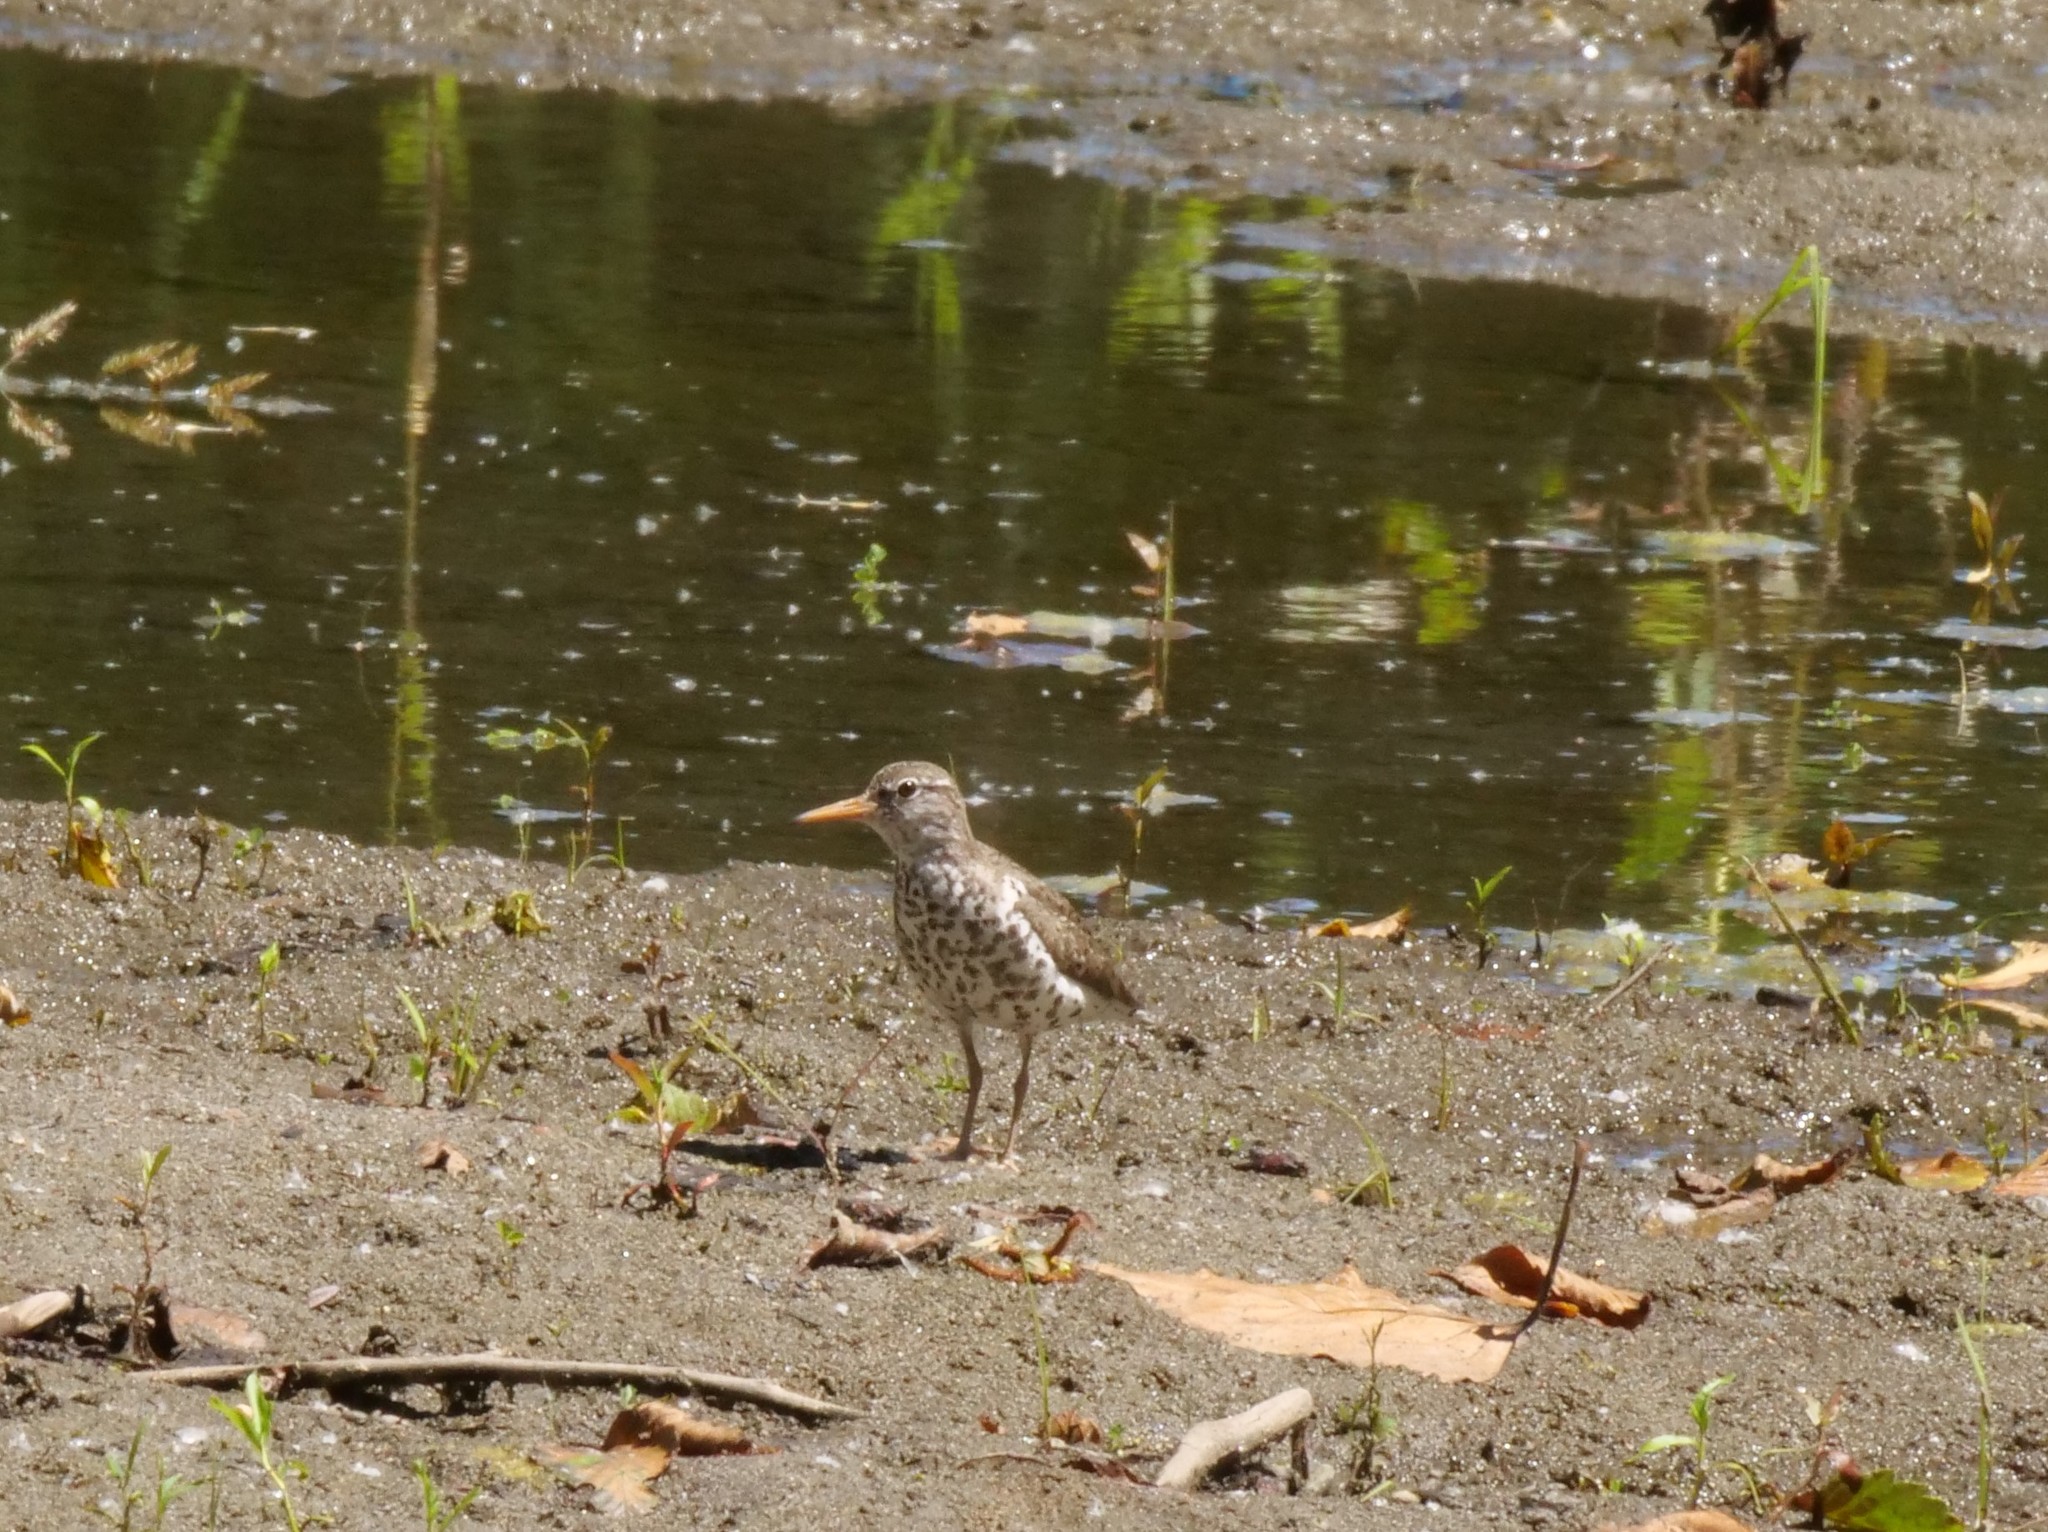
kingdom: Animalia
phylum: Chordata
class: Aves
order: Charadriiformes
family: Scolopacidae
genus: Actitis
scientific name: Actitis macularius
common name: Spotted sandpiper
